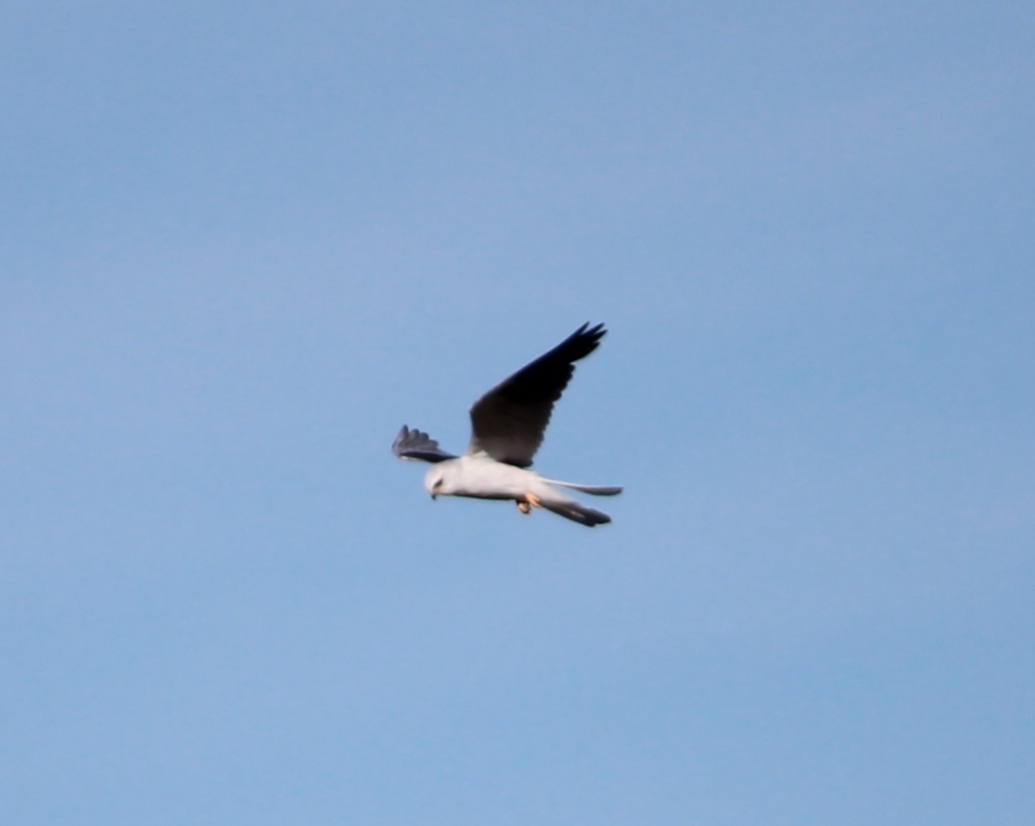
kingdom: Animalia
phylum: Chordata
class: Aves
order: Accipitriformes
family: Accipitridae
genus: Elanus
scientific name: Elanus leucurus
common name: White-tailed kite
